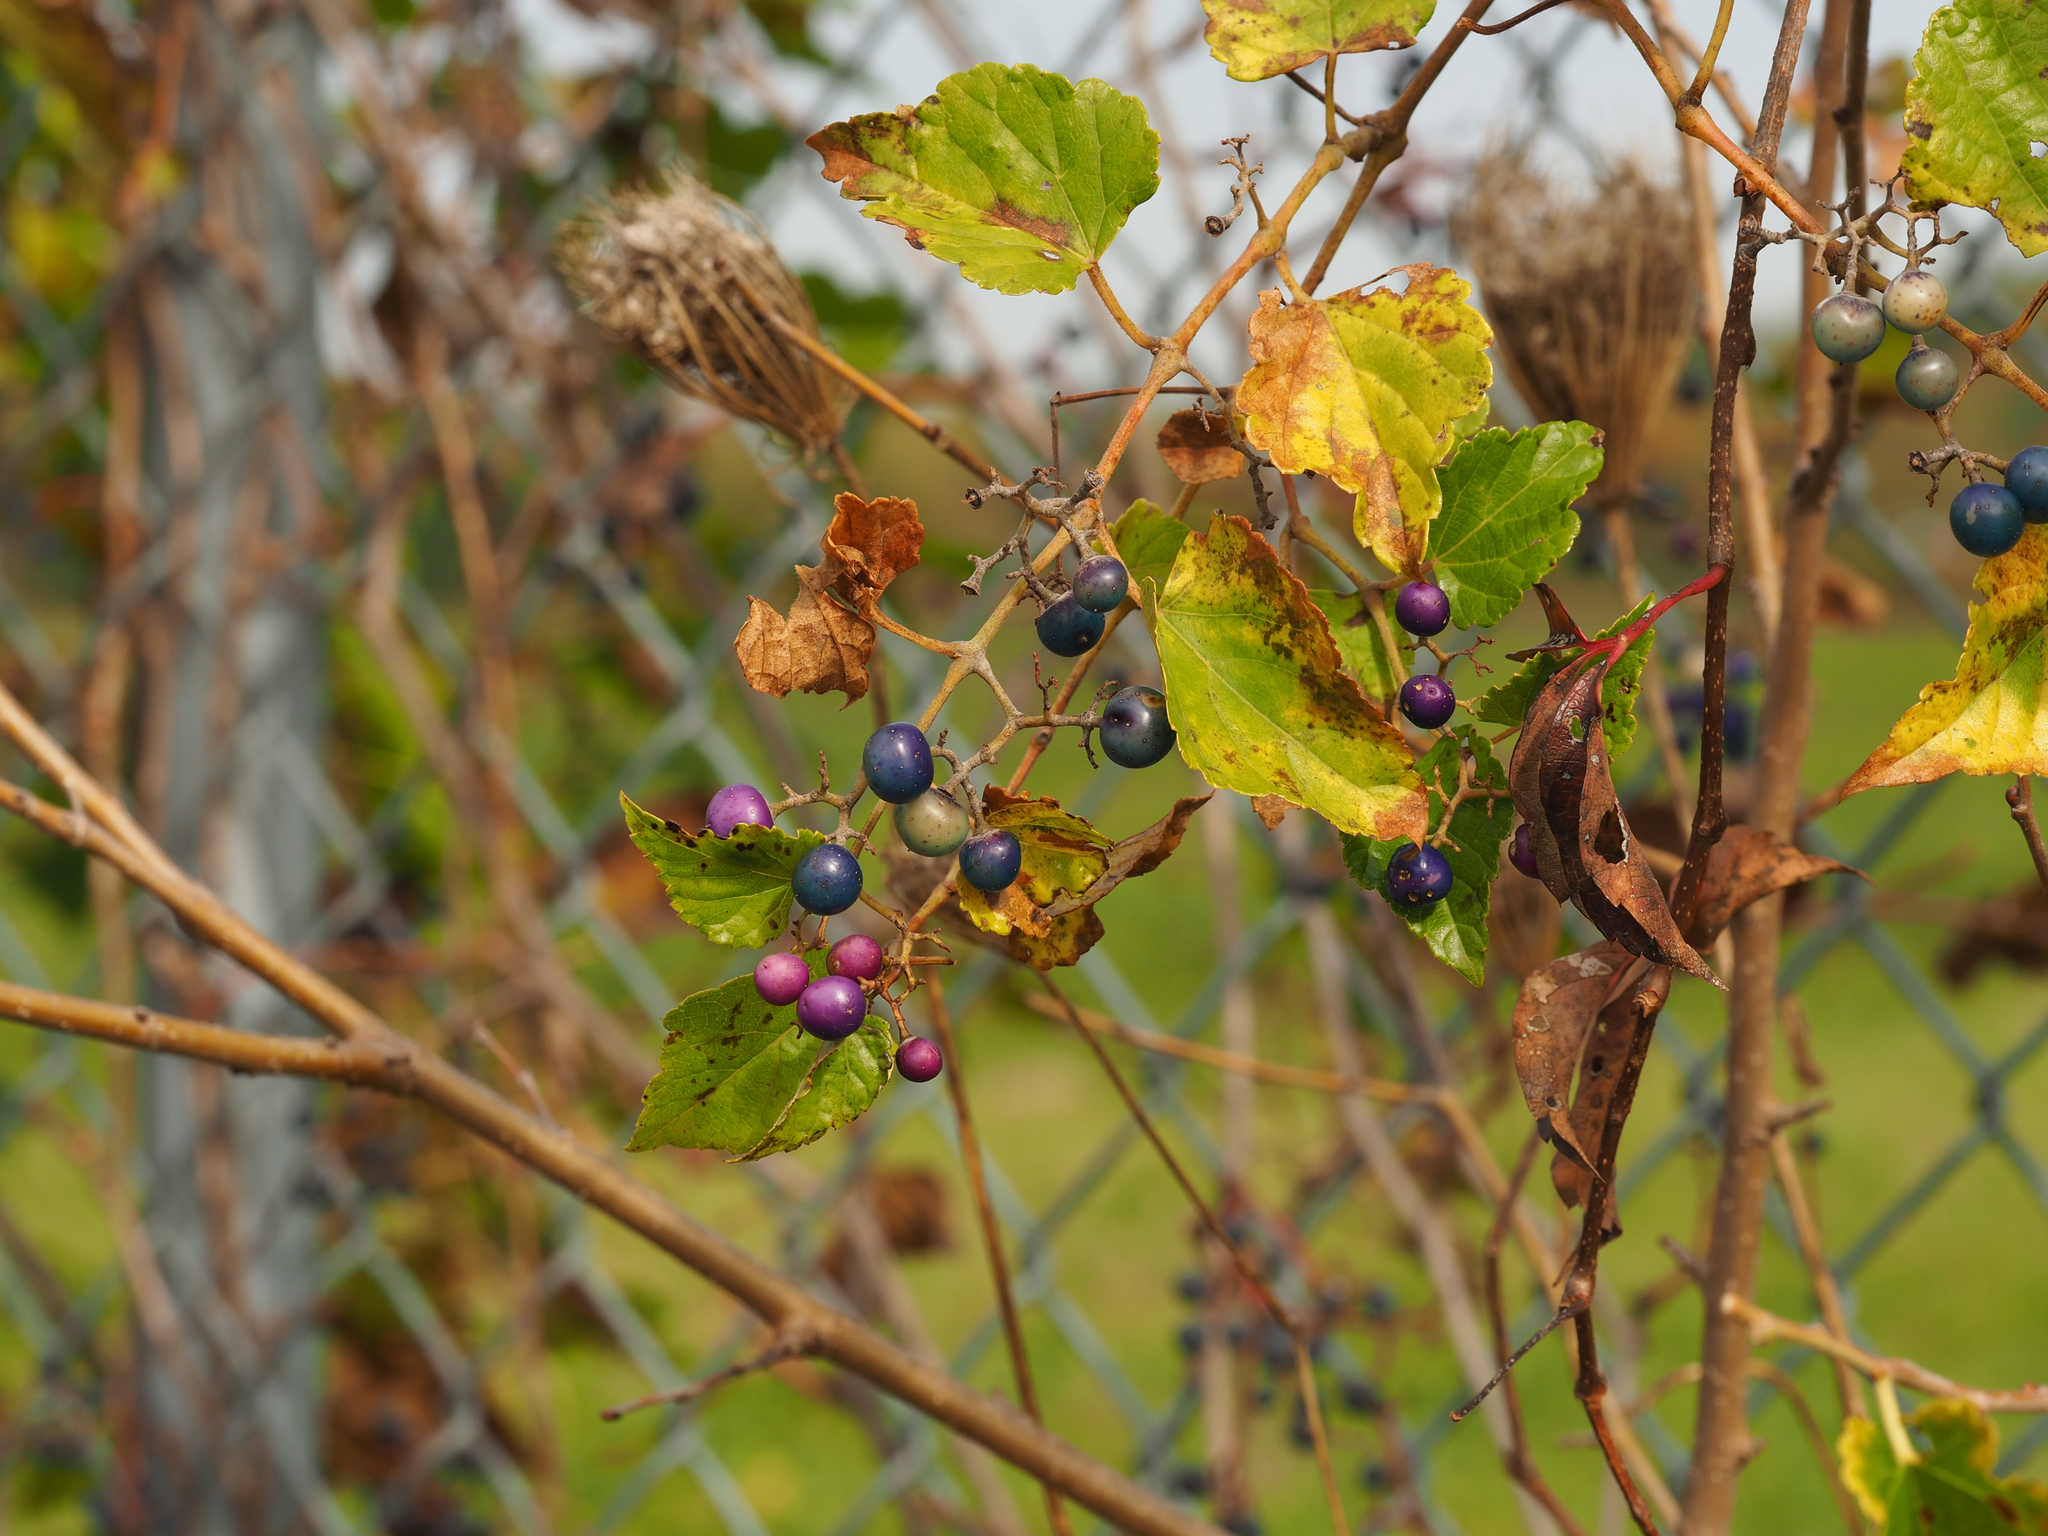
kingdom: Plantae
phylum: Tracheophyta
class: Magnoliopsida
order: Vitales
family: Vitaceae
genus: Ampelopsis
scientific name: Ampelopsis glandulosa
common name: Amur peppervine
